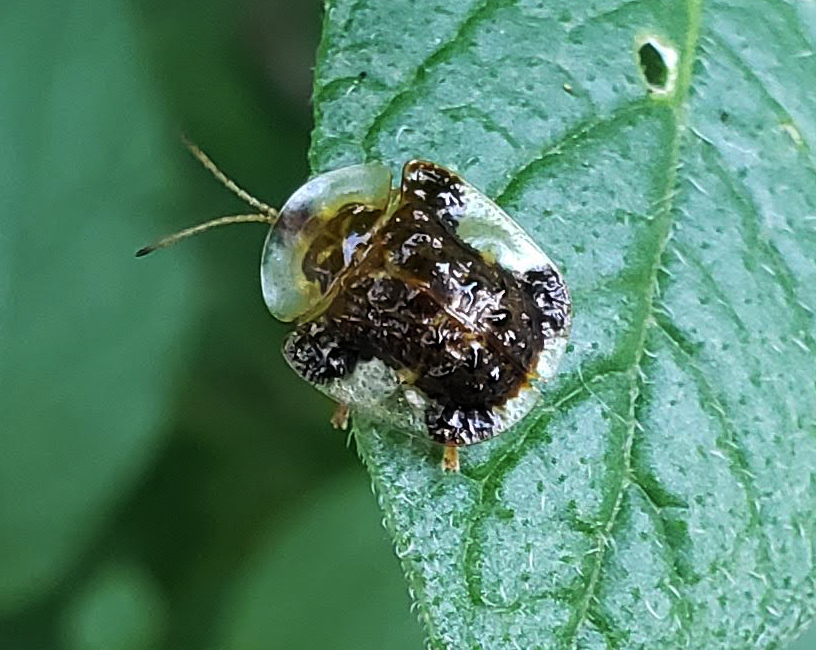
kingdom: Animalia
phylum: Arthropoda
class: Insecta
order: Coleoptera
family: Chrysomelidae
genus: Helocassis
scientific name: Helocassis clavata
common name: Clavate tortoise beetle
